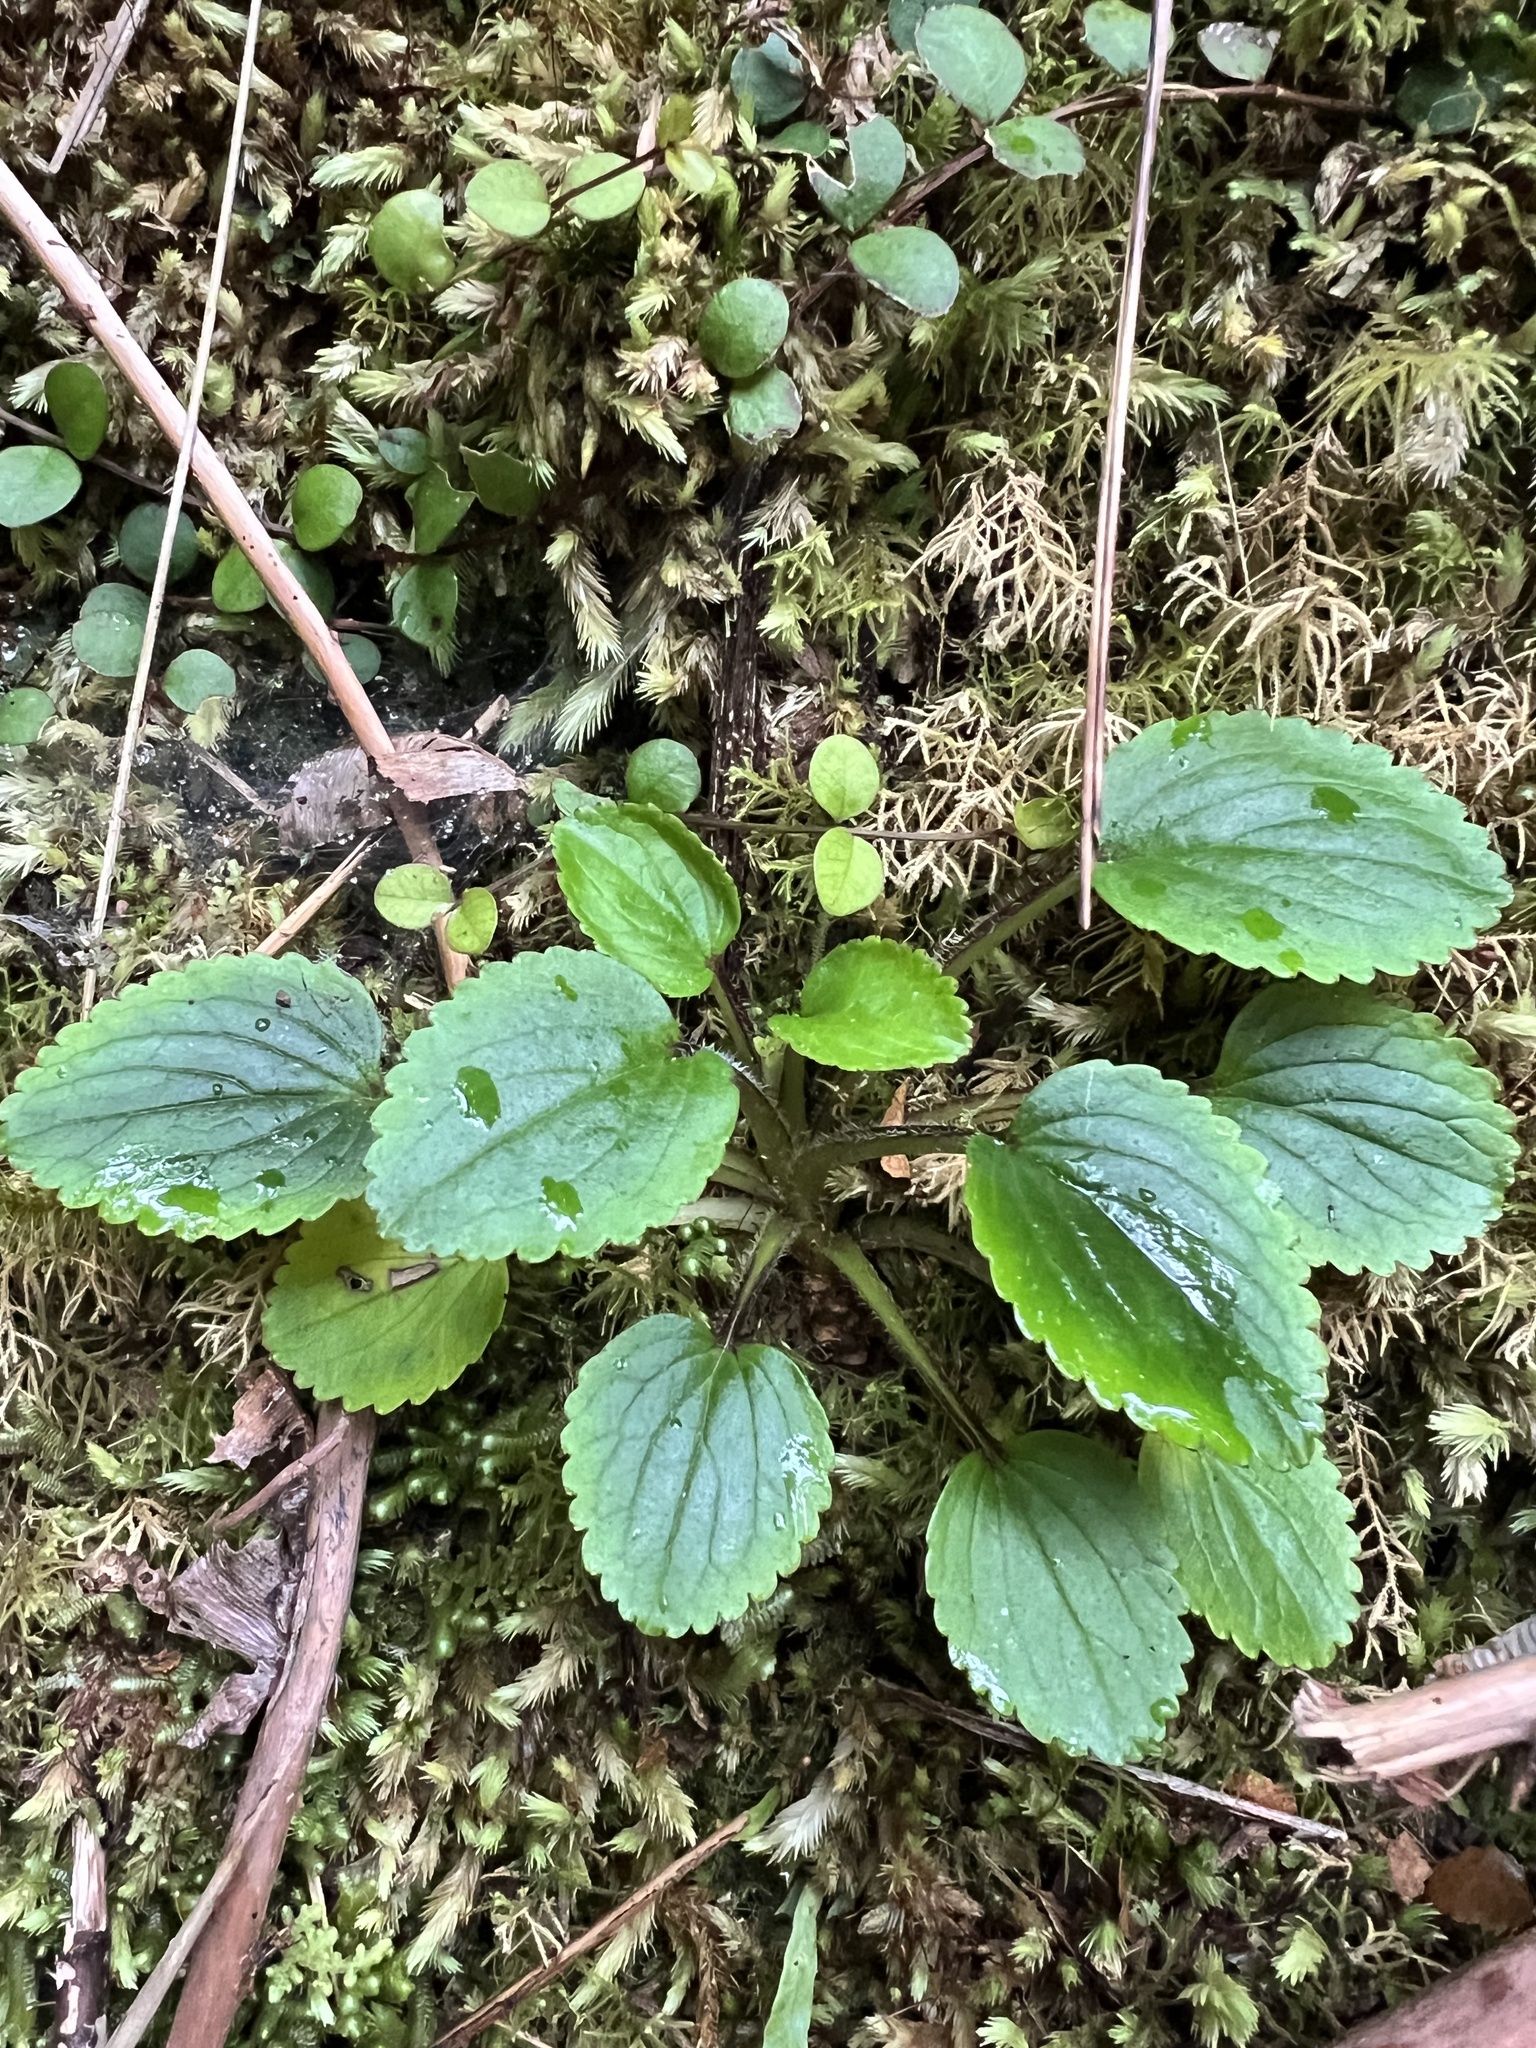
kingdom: Plantae
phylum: Tracheophyta
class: Magnoliopsida
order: Lamiales
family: Plantaginaceae
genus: Ourisia
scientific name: Ourisia macrophylla
